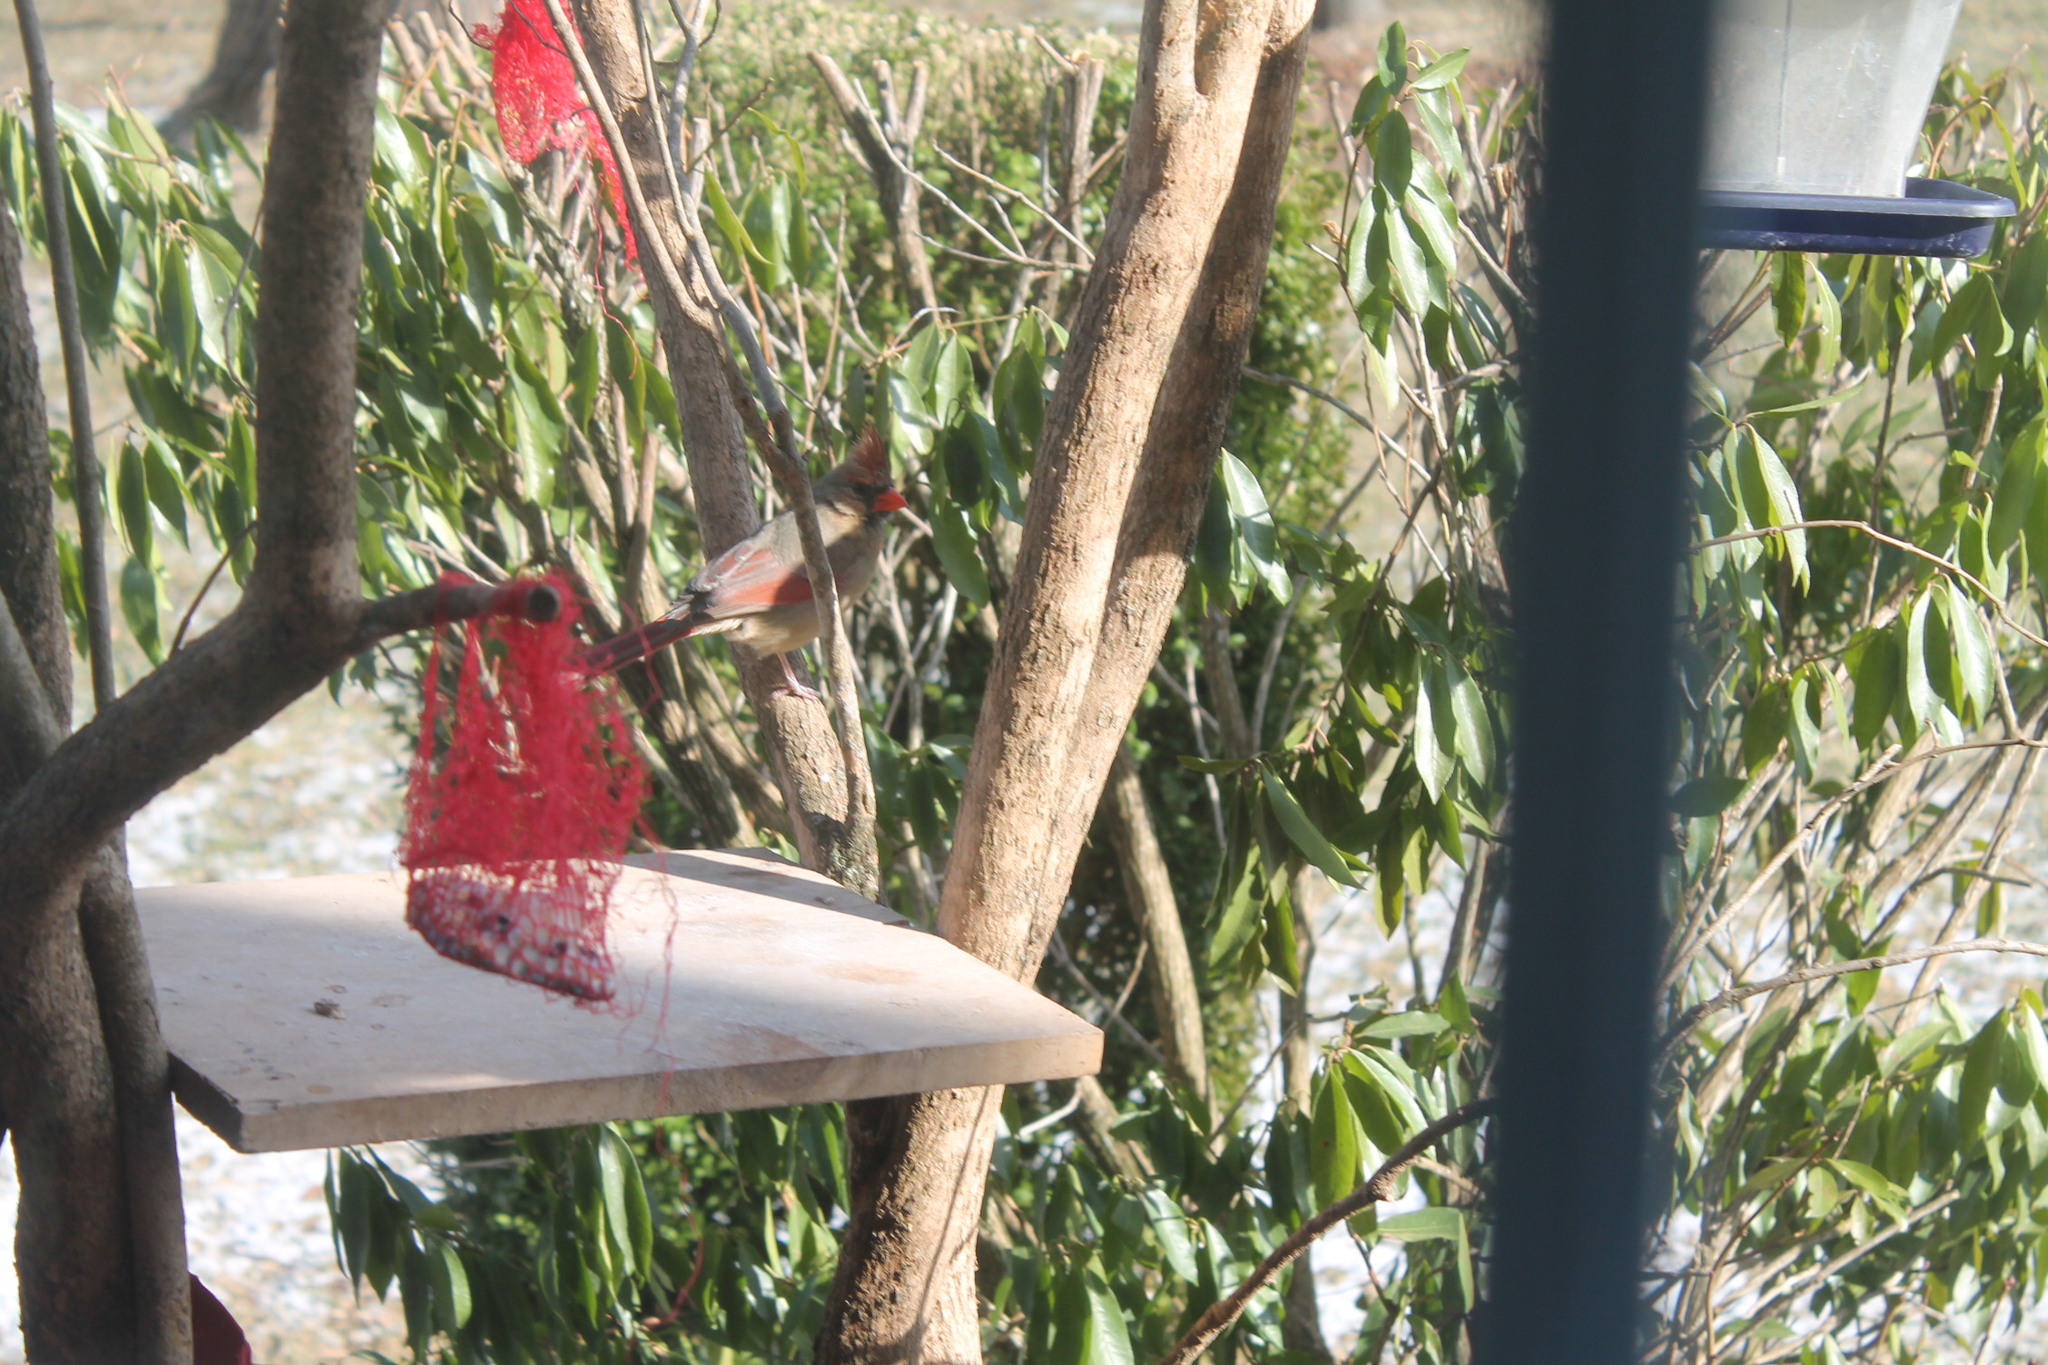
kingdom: Animalia
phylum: Chordata
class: Aves
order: Passeriformes
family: Cardinalidae
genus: Cardinalis
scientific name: Cardinalis cardinalis
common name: Northern cardinal
